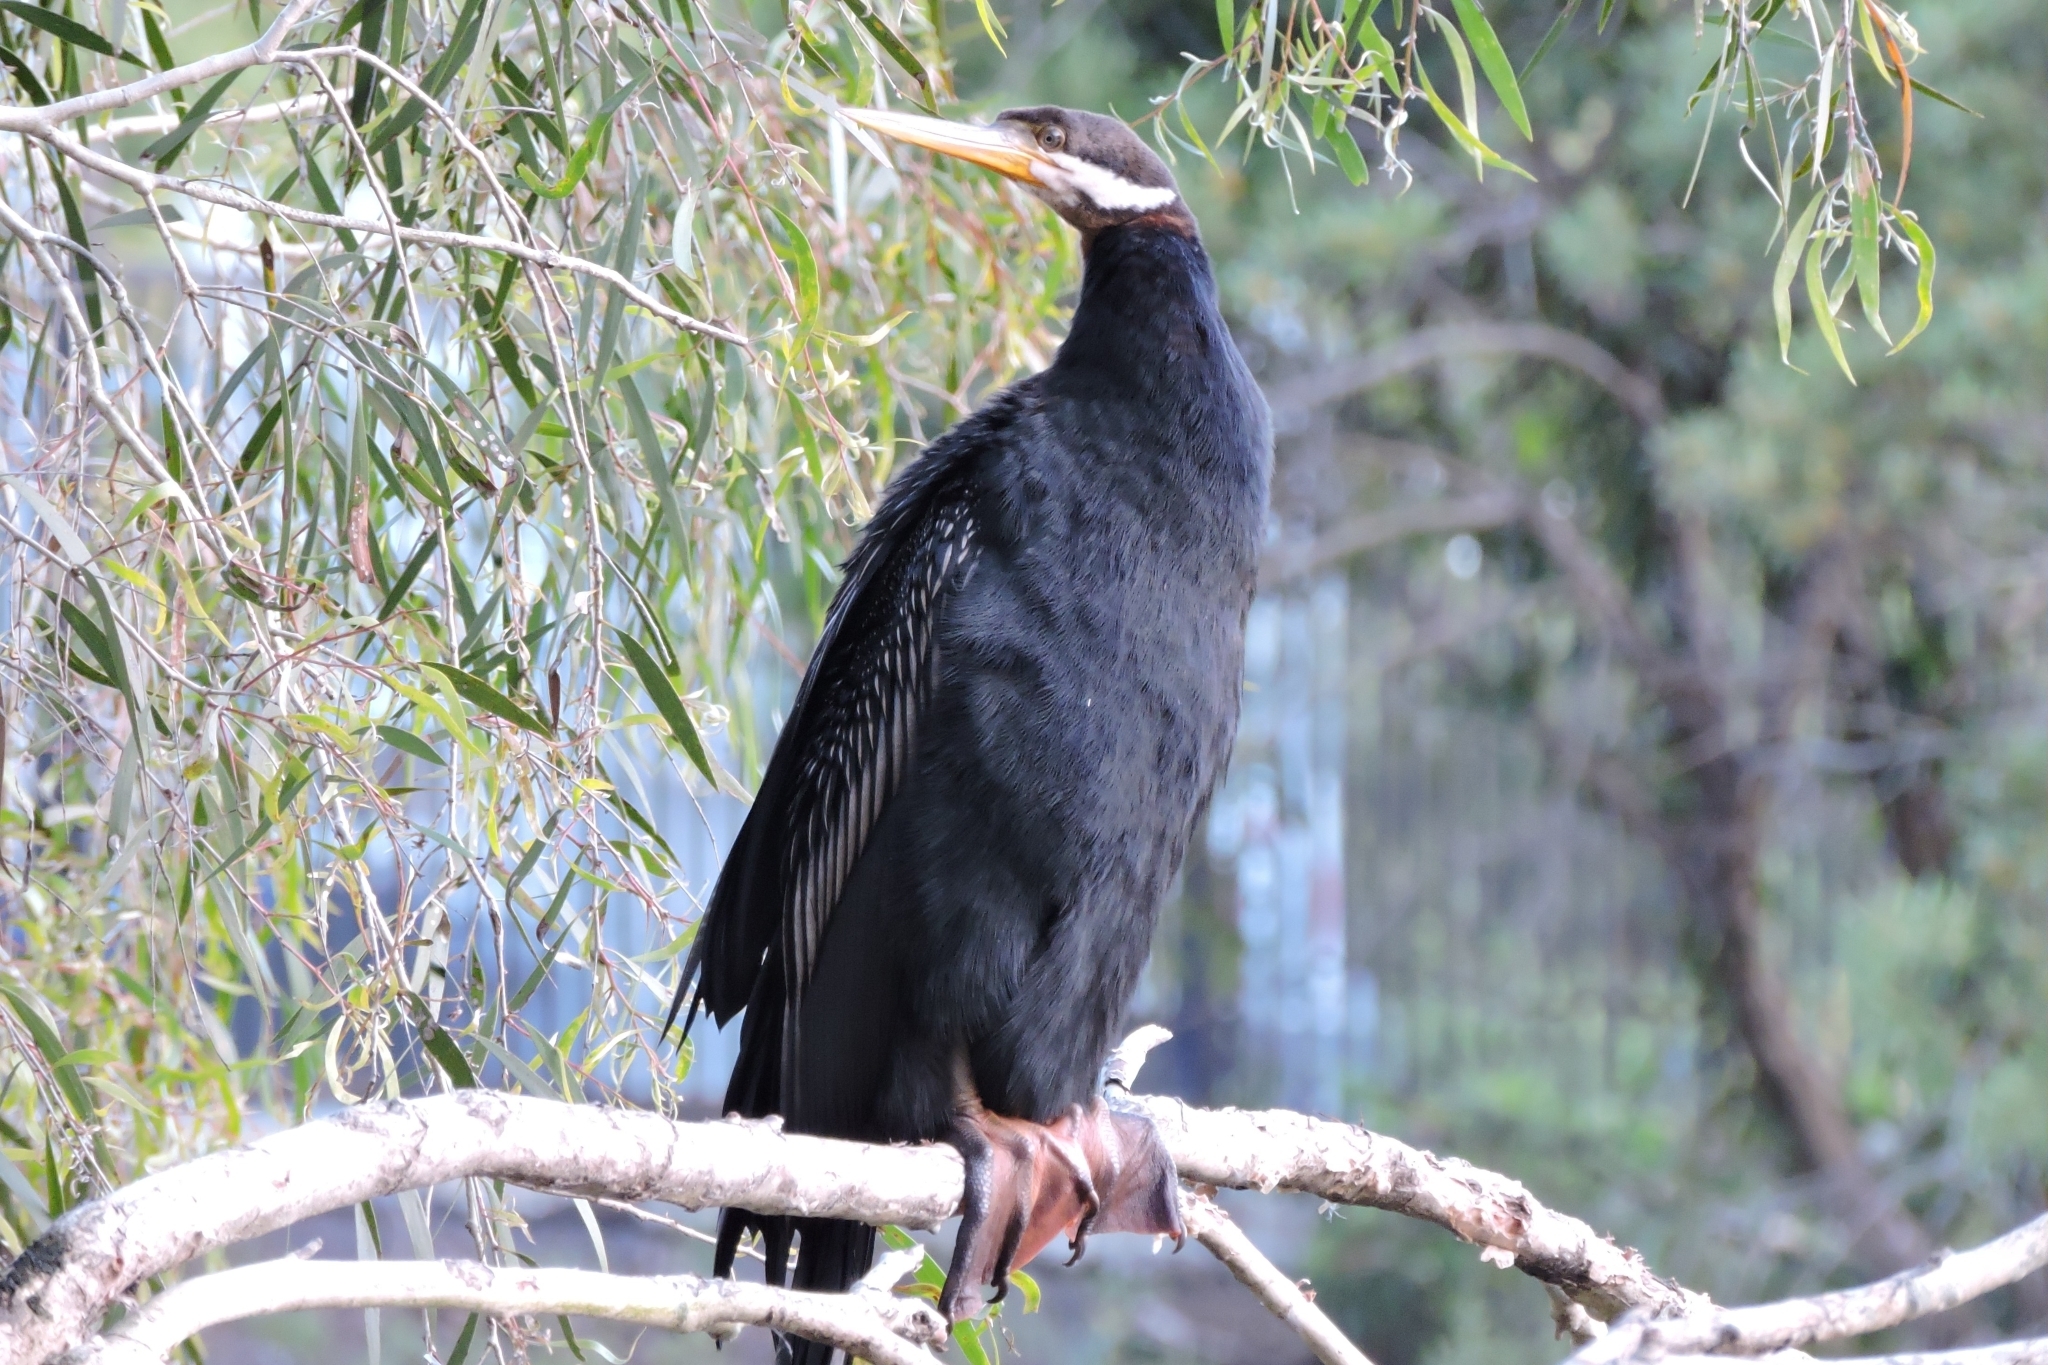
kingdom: Animalia
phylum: Chordata
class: Aves
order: Suliformes
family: Anhingidae
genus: Anhinga
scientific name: Anhinga novaehollandiae
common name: Australasian darter
